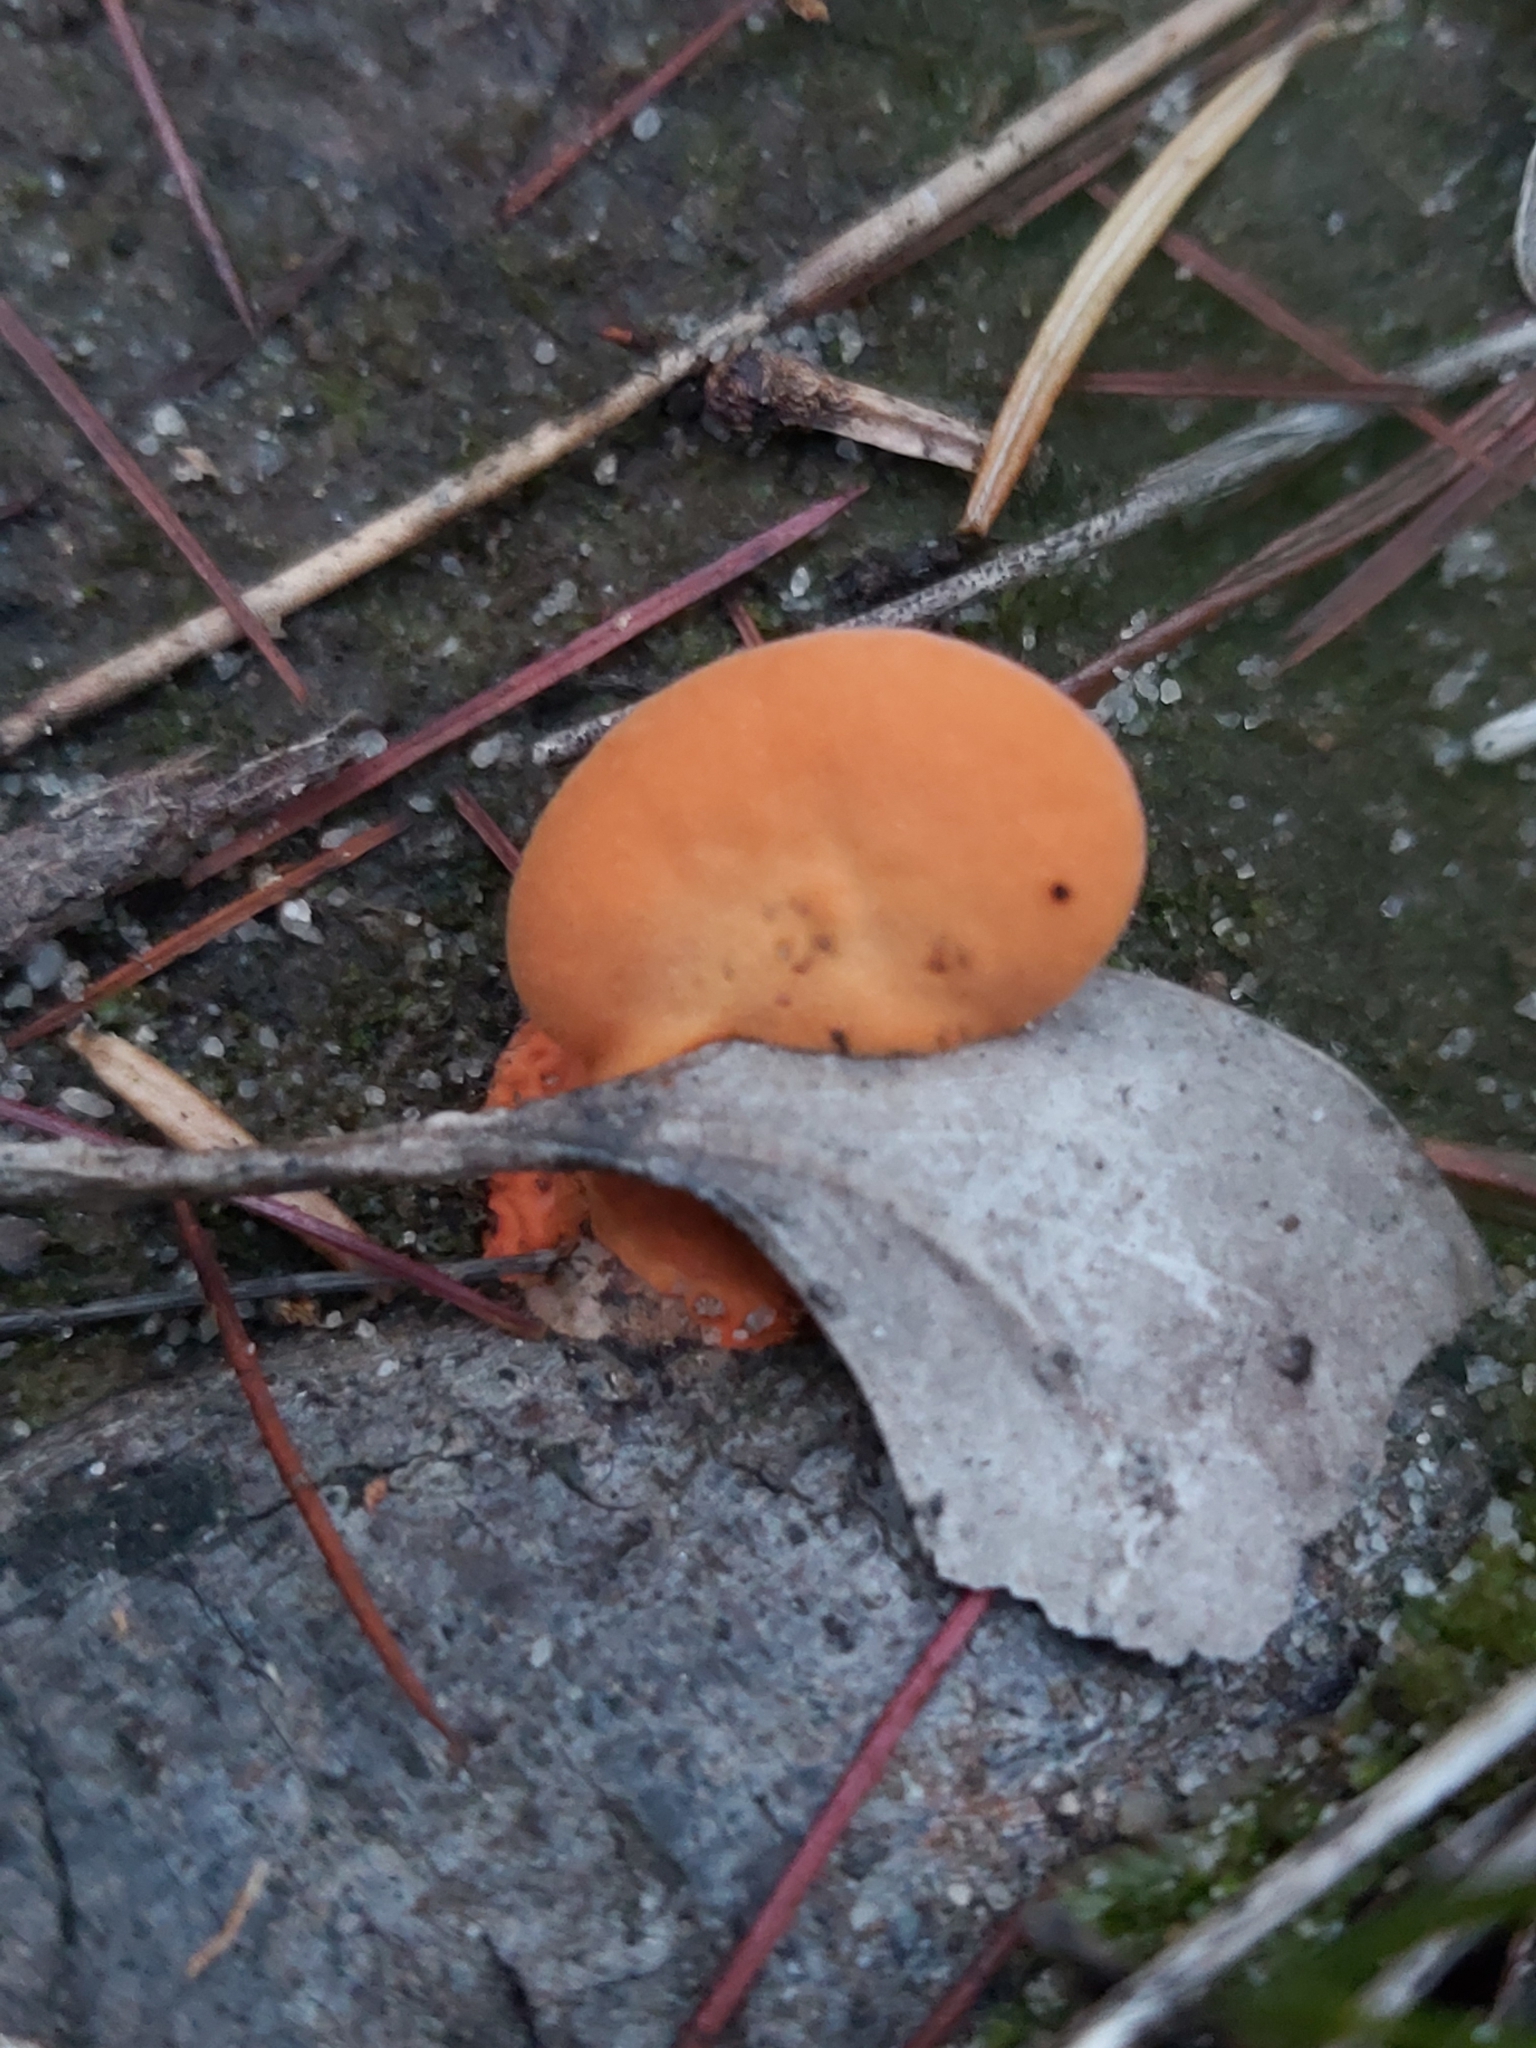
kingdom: Fungi
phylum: Basidiomycota
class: Agaricomycetes
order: Polyporales
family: Polyporaceae
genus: Trametes
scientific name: Trametes coccinea
